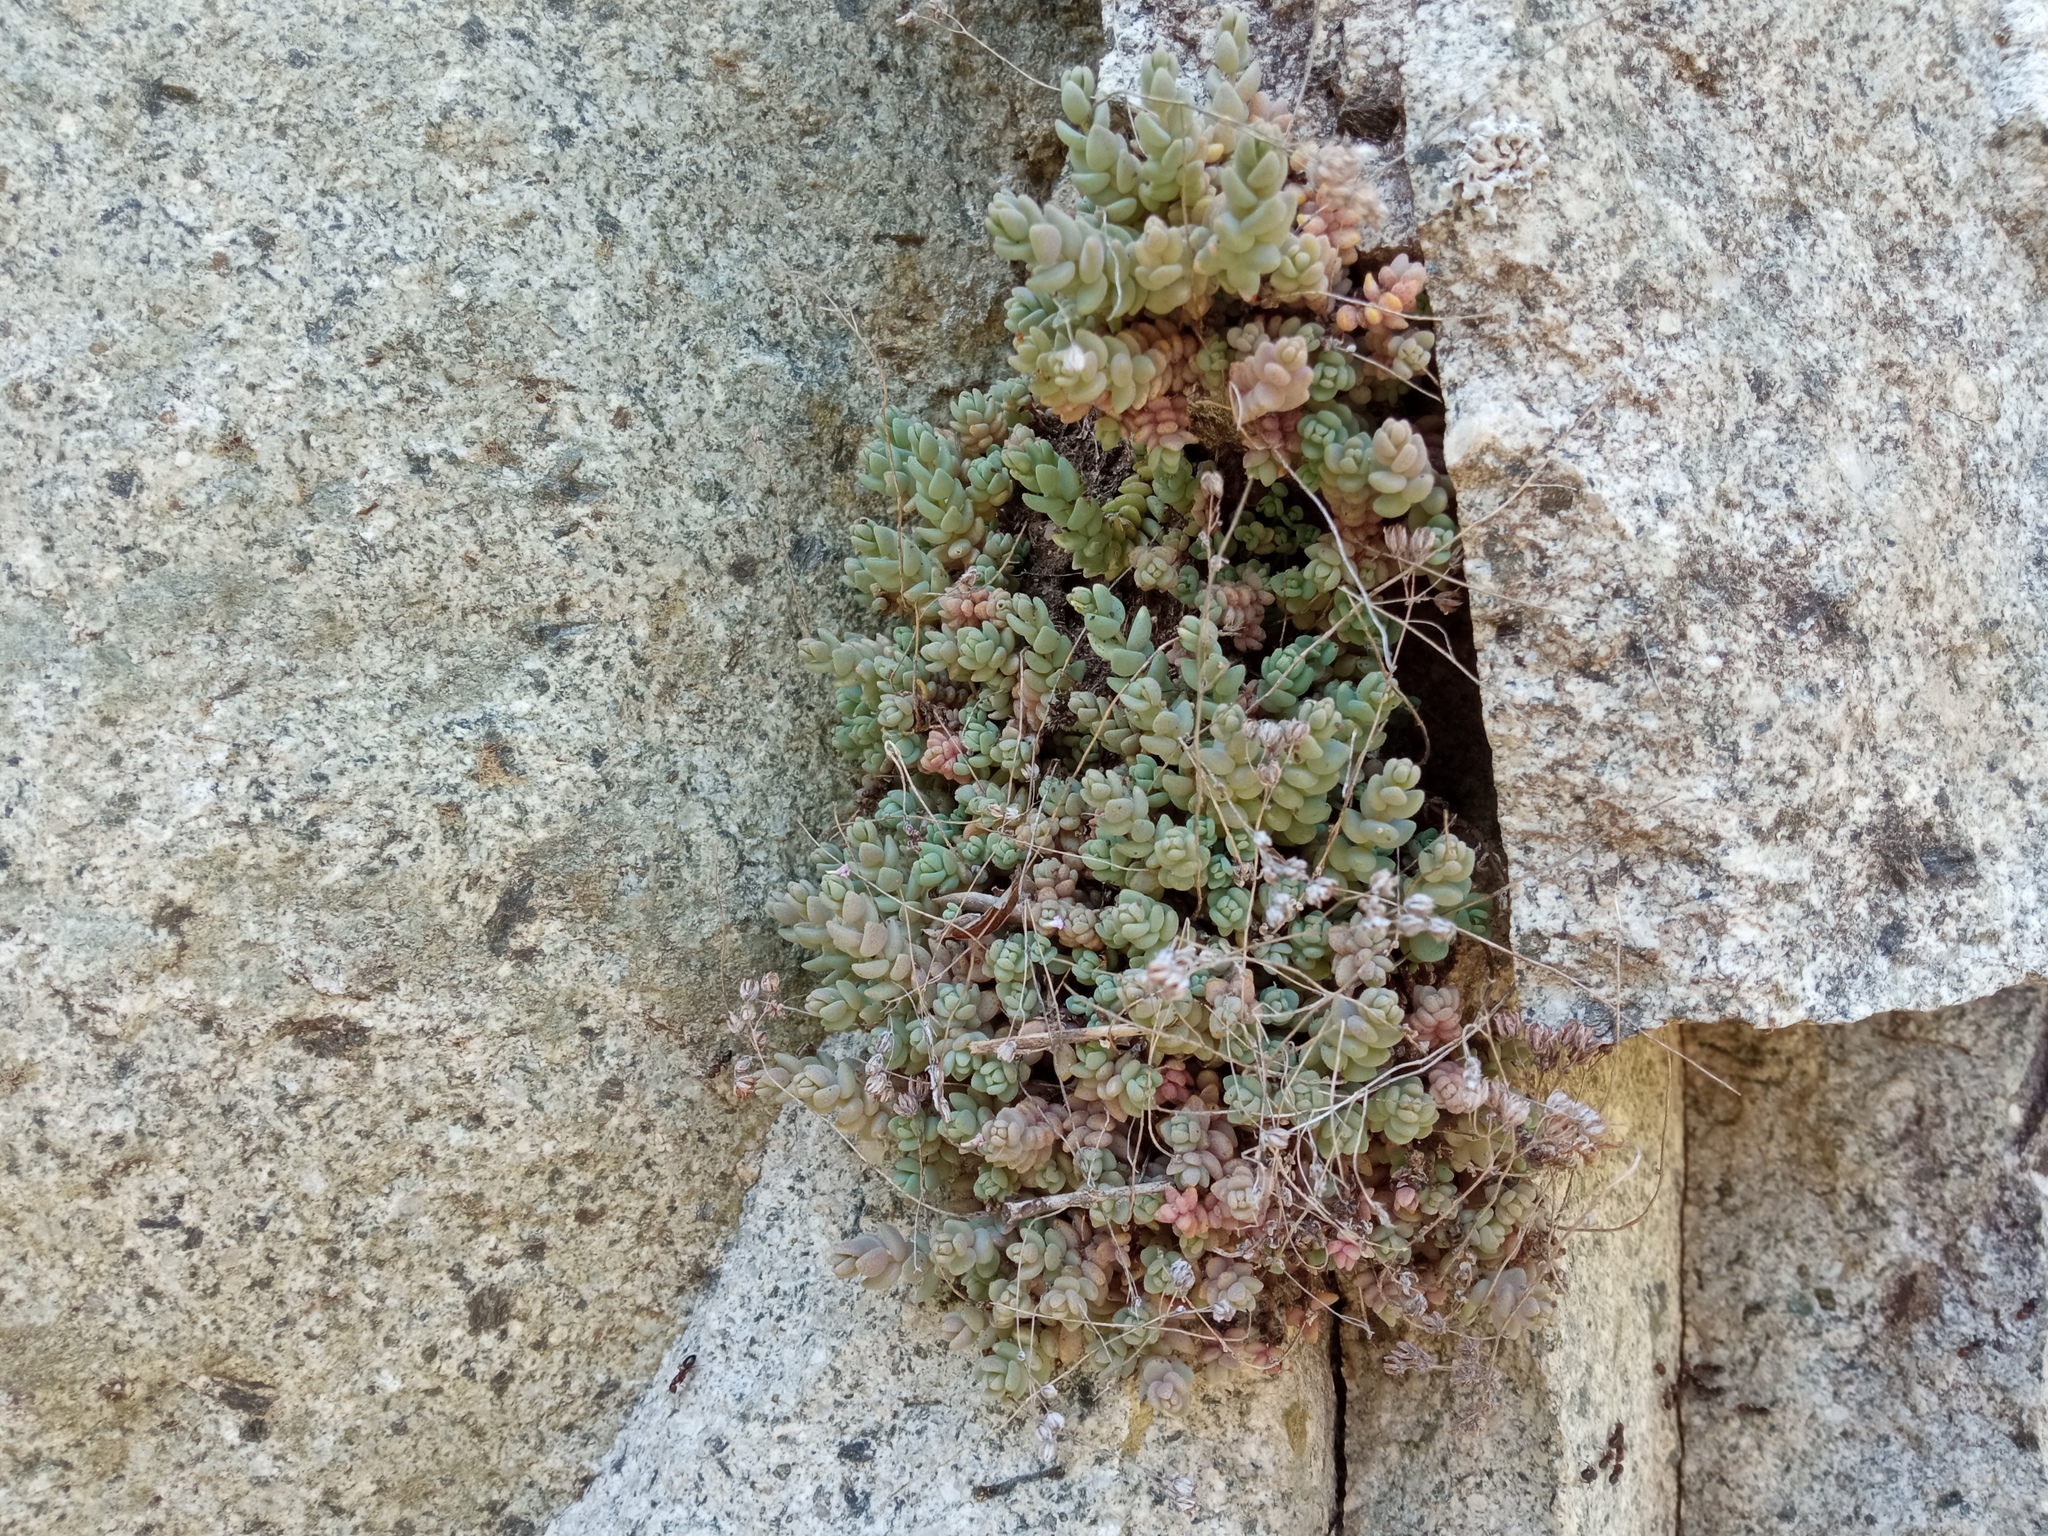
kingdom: Plantae
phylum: Tracheophyta
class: Magnoliopsida
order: Saxifragales
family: Crassulaceae
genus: Sedum
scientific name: Sedum dasyphyllum
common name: Thick-leaf stonecrop
